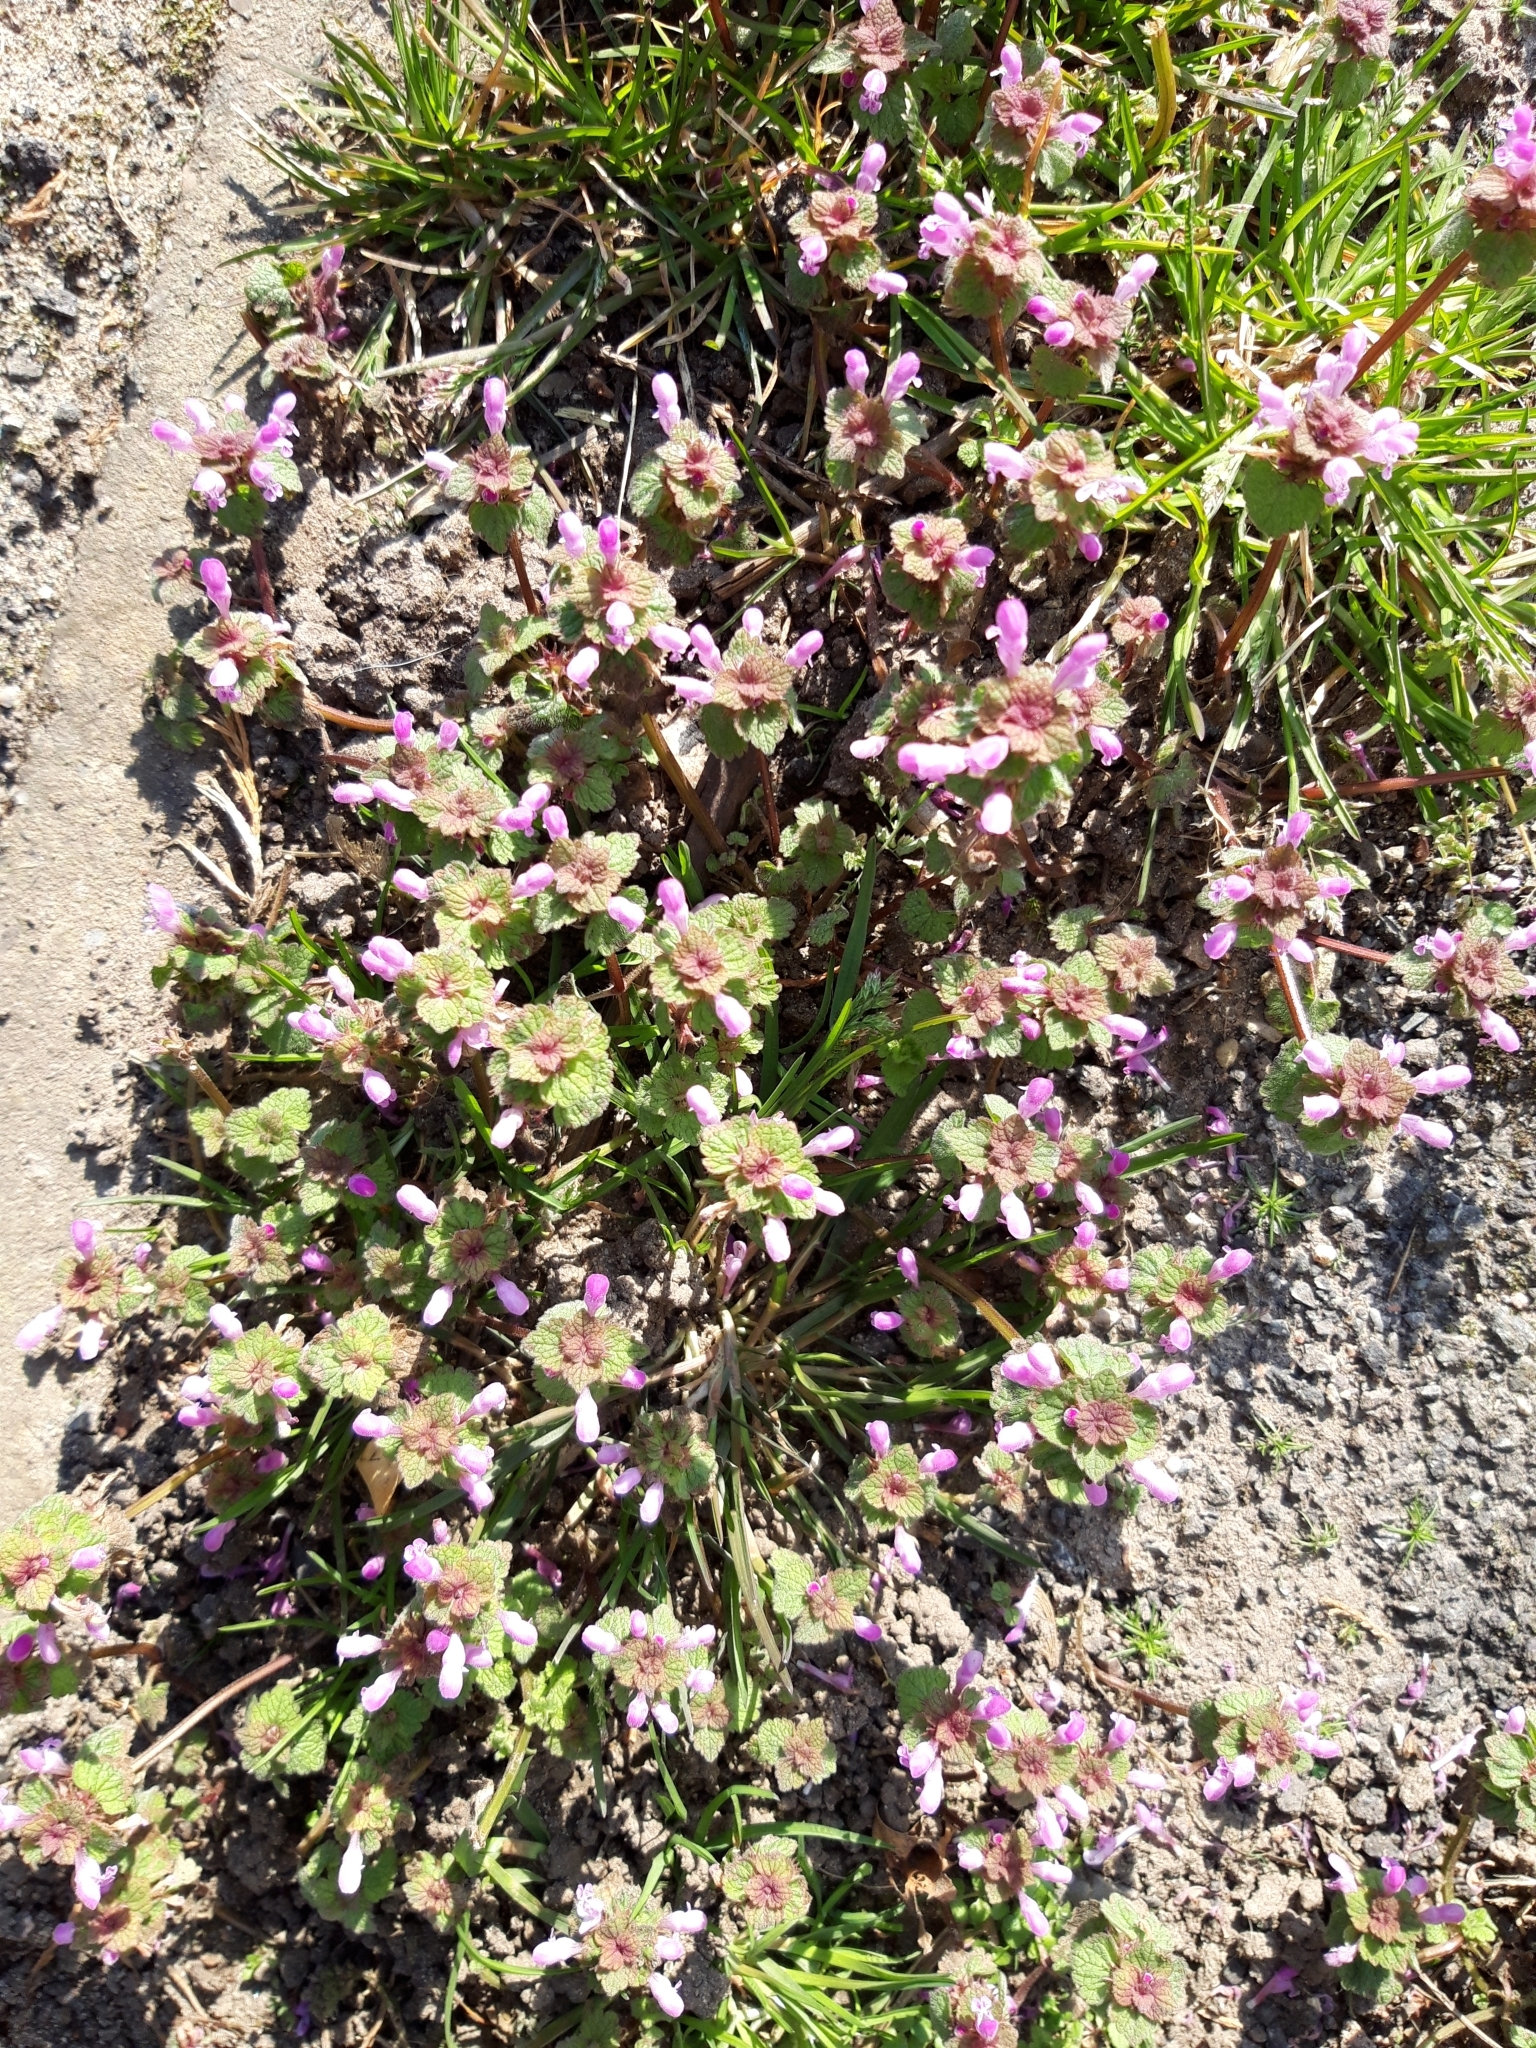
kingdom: Plantae
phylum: Tracheophyta
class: Magnoliopsida
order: Lamiales
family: Lamiaceae
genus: Lamium
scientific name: Lamium purpureum
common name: Red dead-nettle
